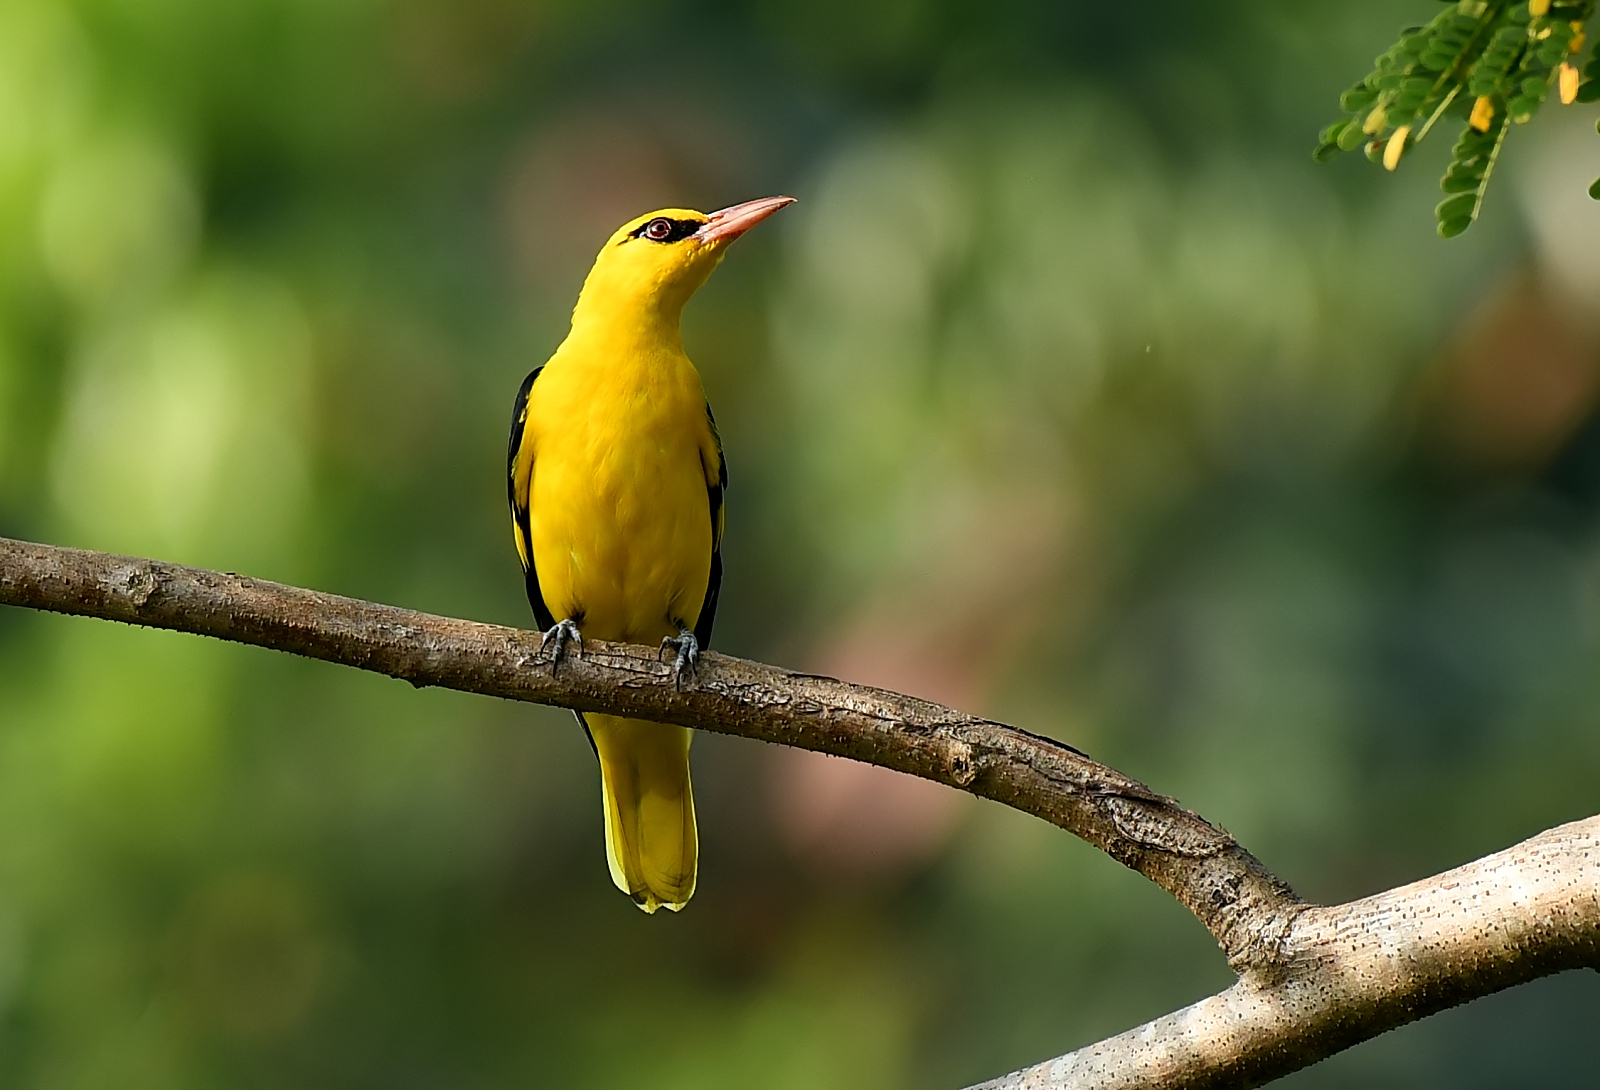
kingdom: Animalia
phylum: Chordata
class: Aves
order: Passeriformes
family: Oriolidae
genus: Oriolus
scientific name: Oriolus kundoo
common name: Indian golden oriole
